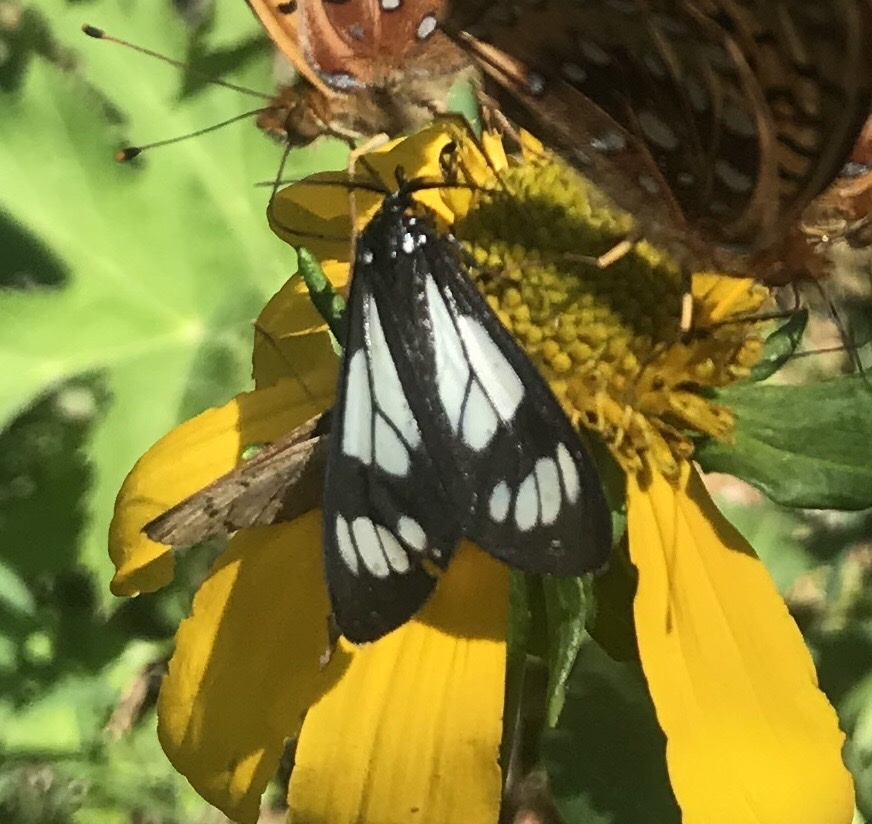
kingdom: Animalia
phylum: Arthropoda
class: Insecta
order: Lepidoptera
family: Erebidae
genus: Gnophaela
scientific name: Gnophaela vermiculata
